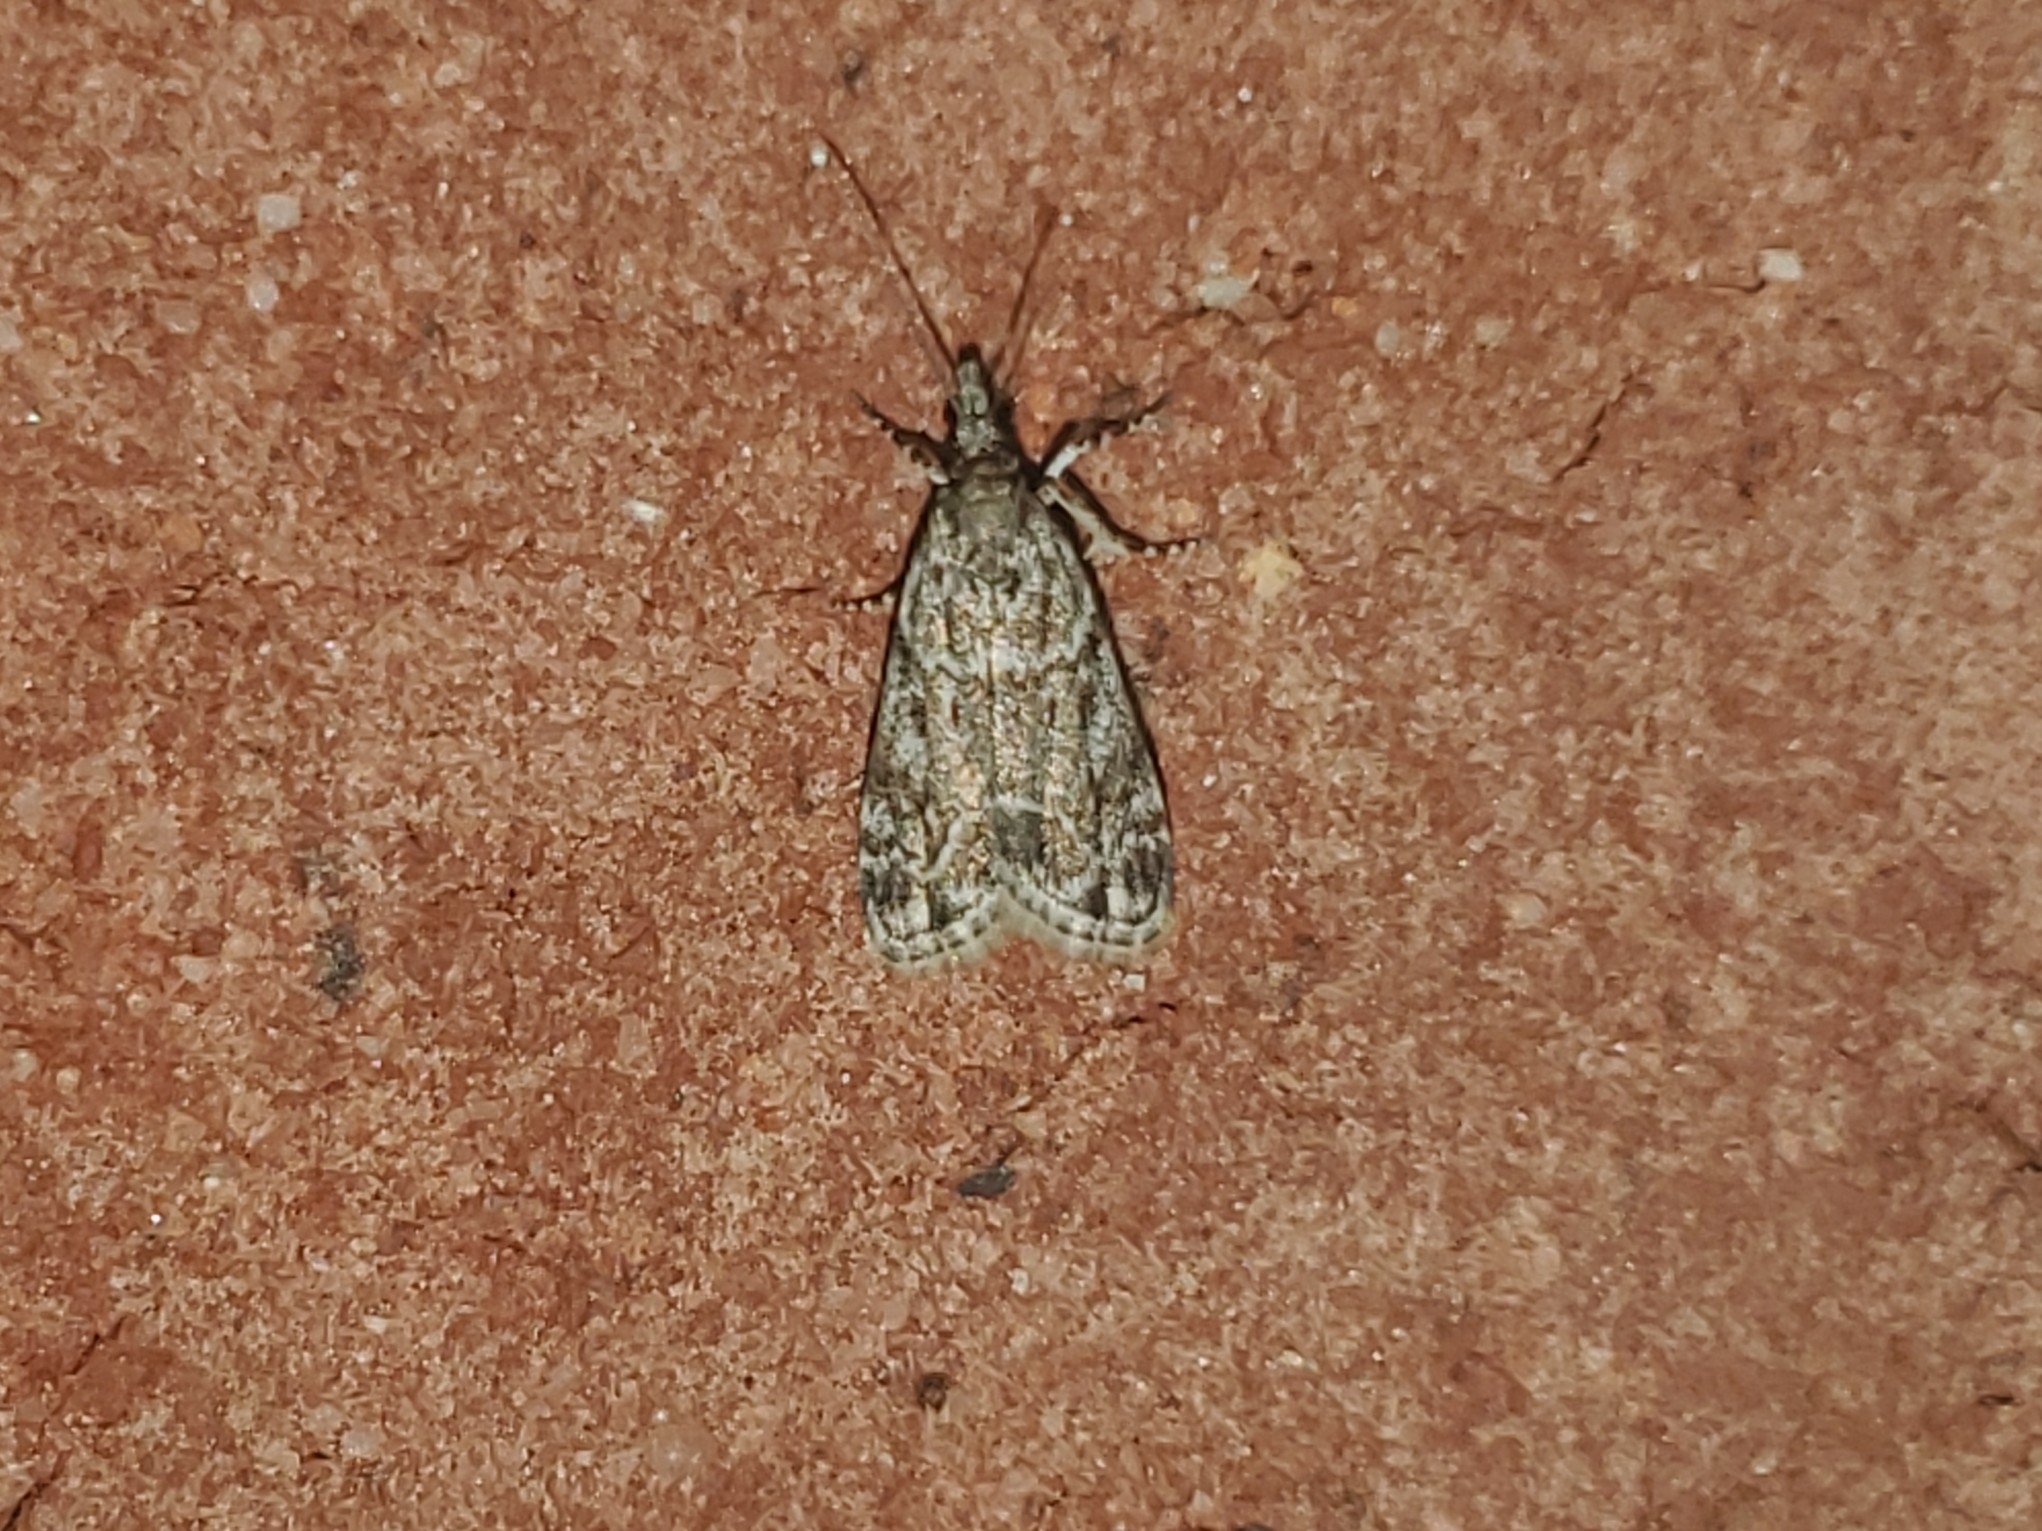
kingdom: Animalia
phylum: Arthropoda
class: Insecta
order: Lepidoptera
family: Crambidae
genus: Eudonia
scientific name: Eudonia heterosalis
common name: Mcdunnough's eudonia
